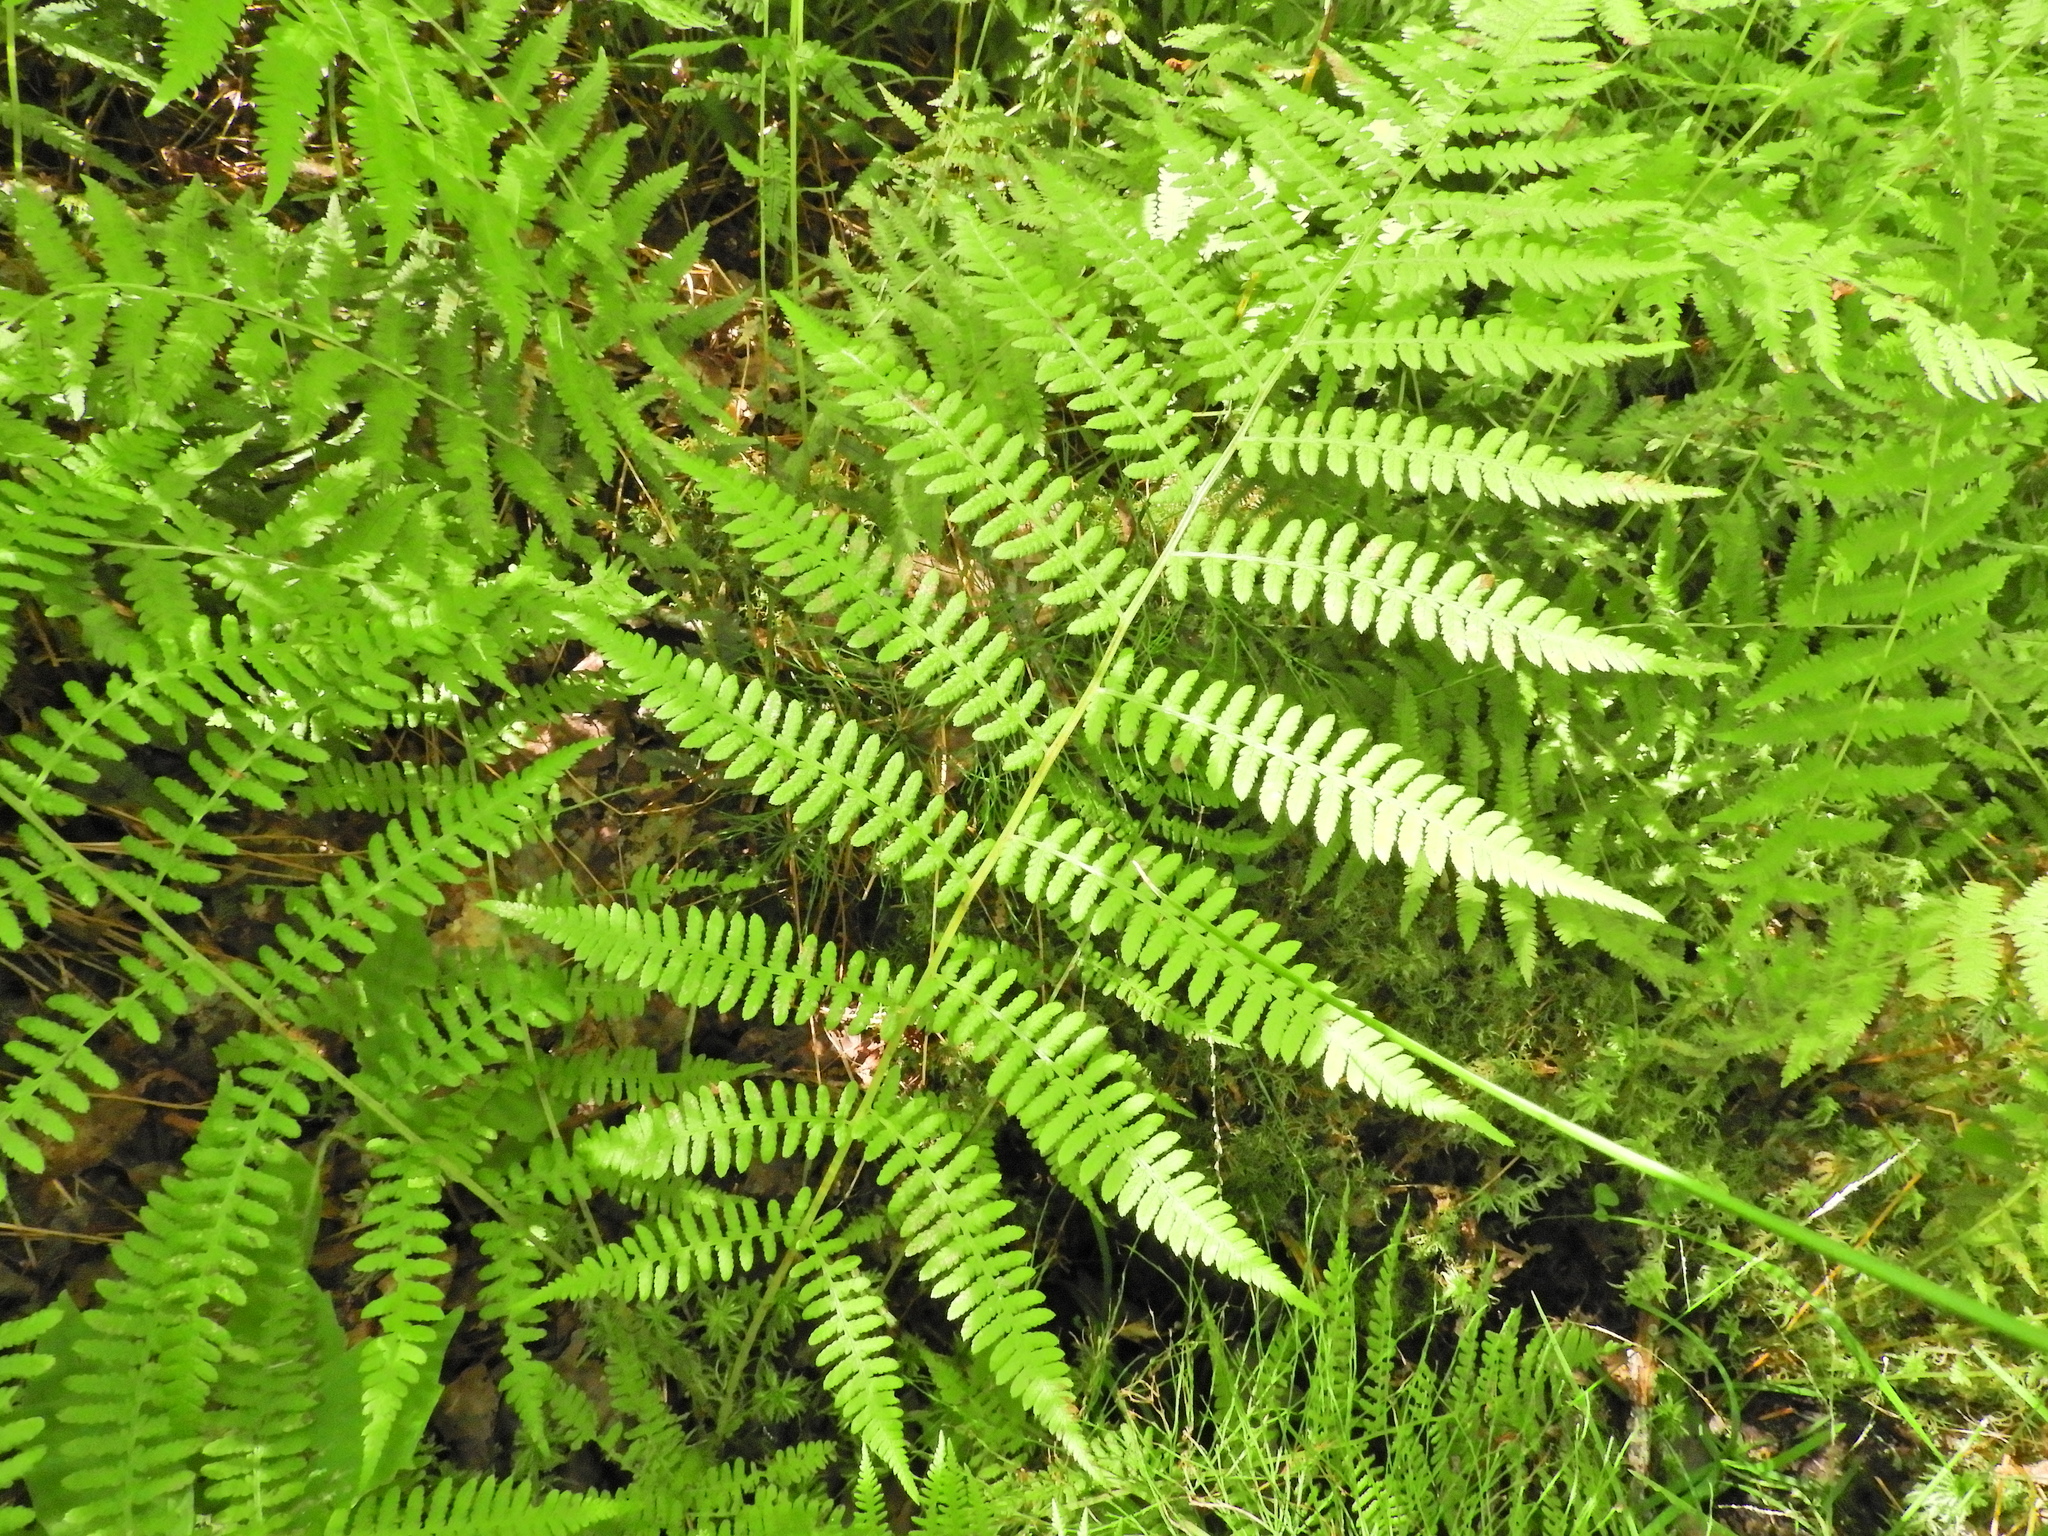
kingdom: Plantae
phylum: Tracheophyta
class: Polypodiopsida
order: Polypodiales
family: Athyriaceae
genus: Athyrium
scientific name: Athyrium angustum
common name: Northern lady fern
